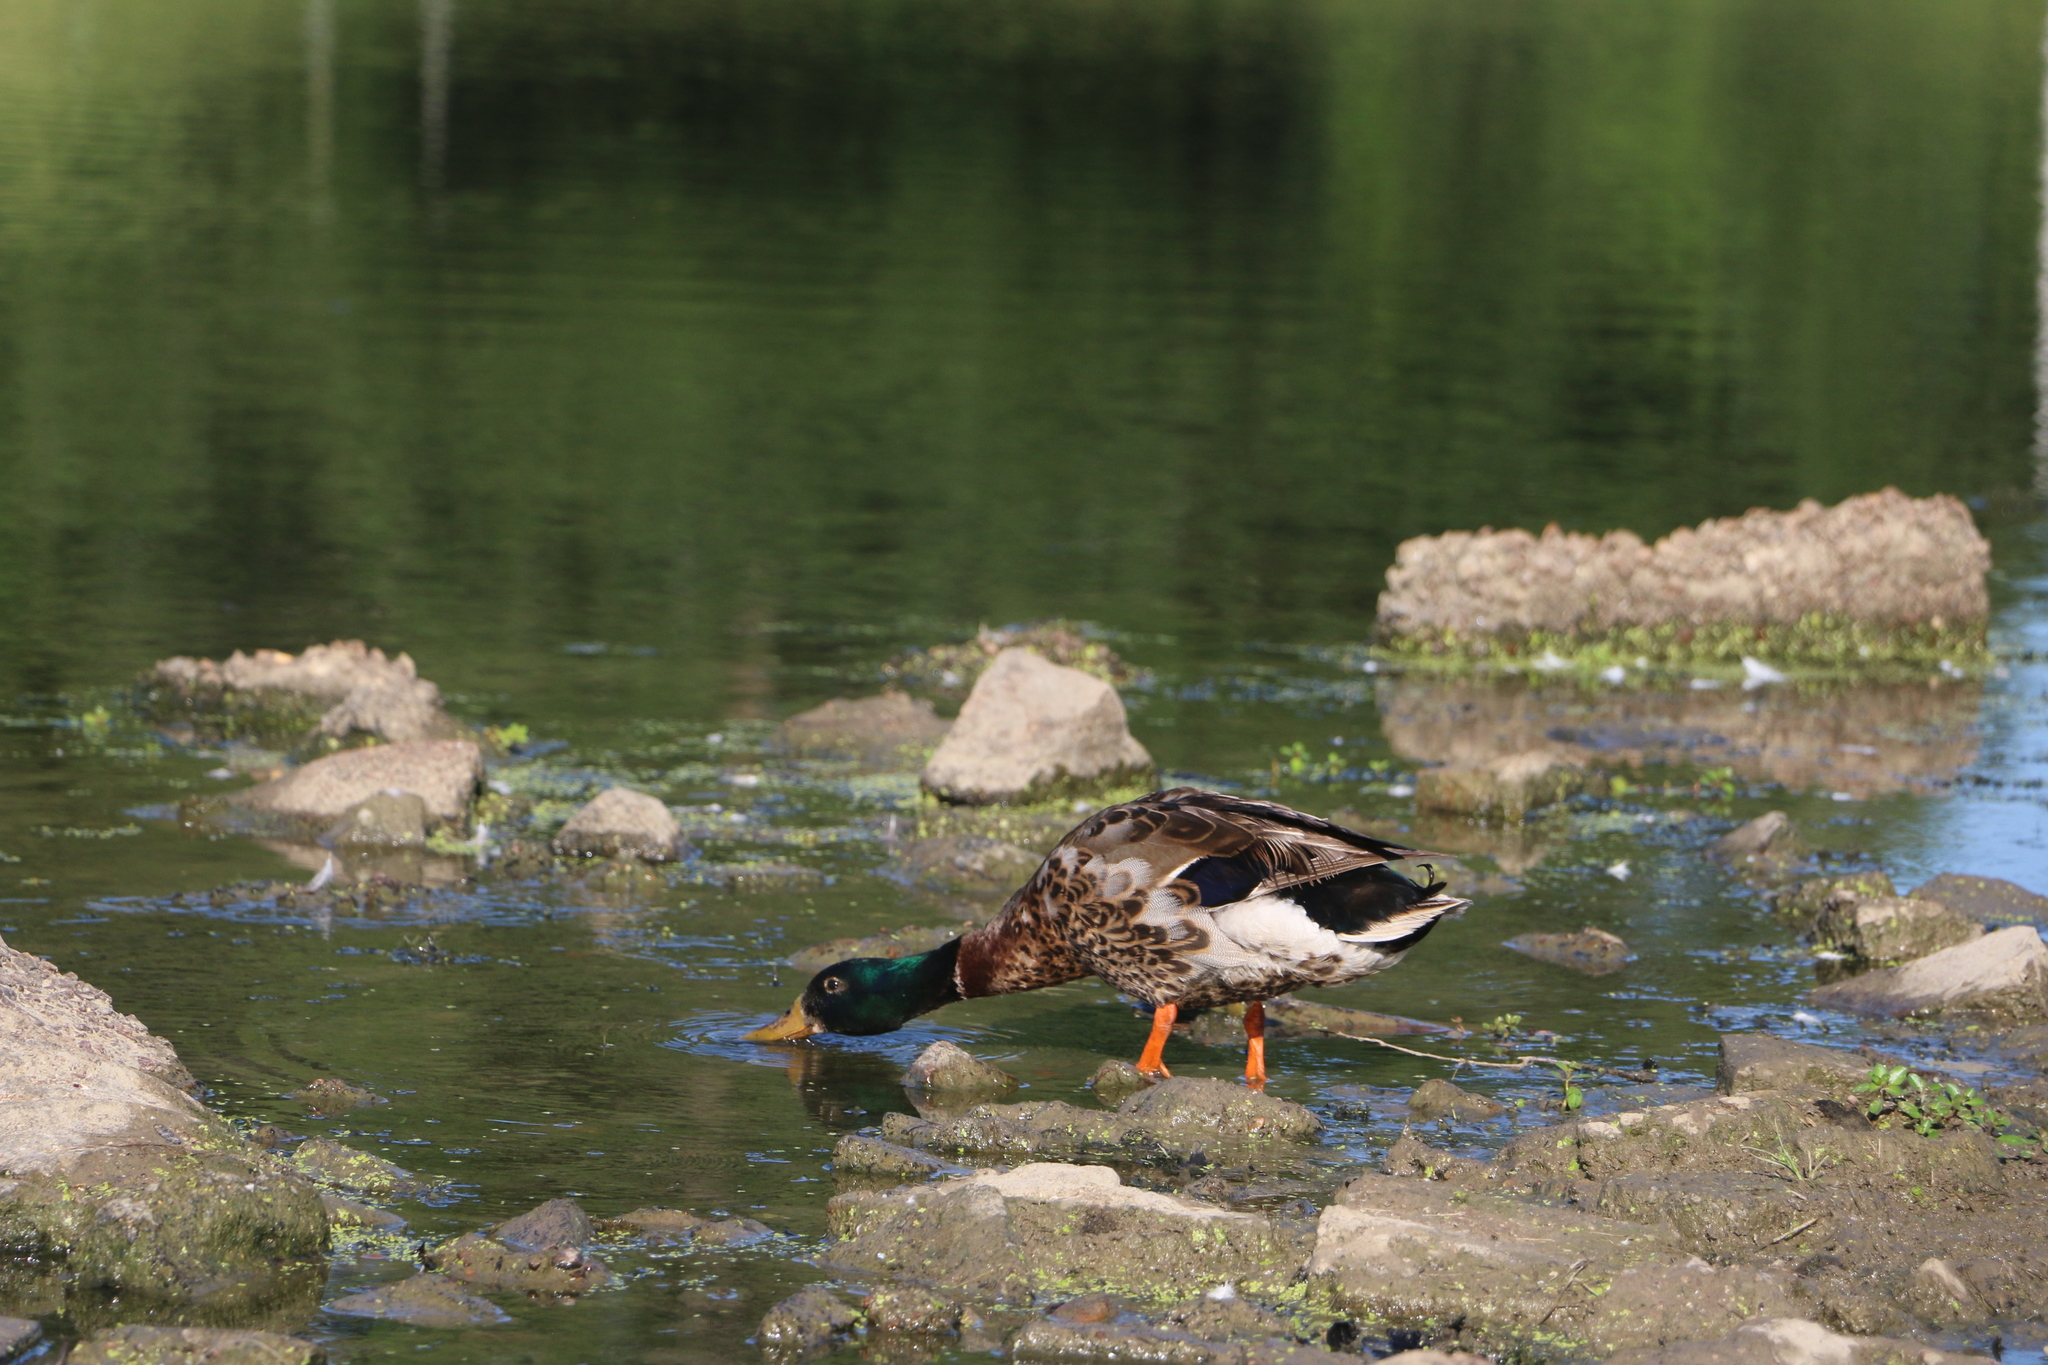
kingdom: Animalia
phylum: Chordata
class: Aves
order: Anseriformes
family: Anatidae
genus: Anas
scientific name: Anas platyrhynchos
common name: Mallard
